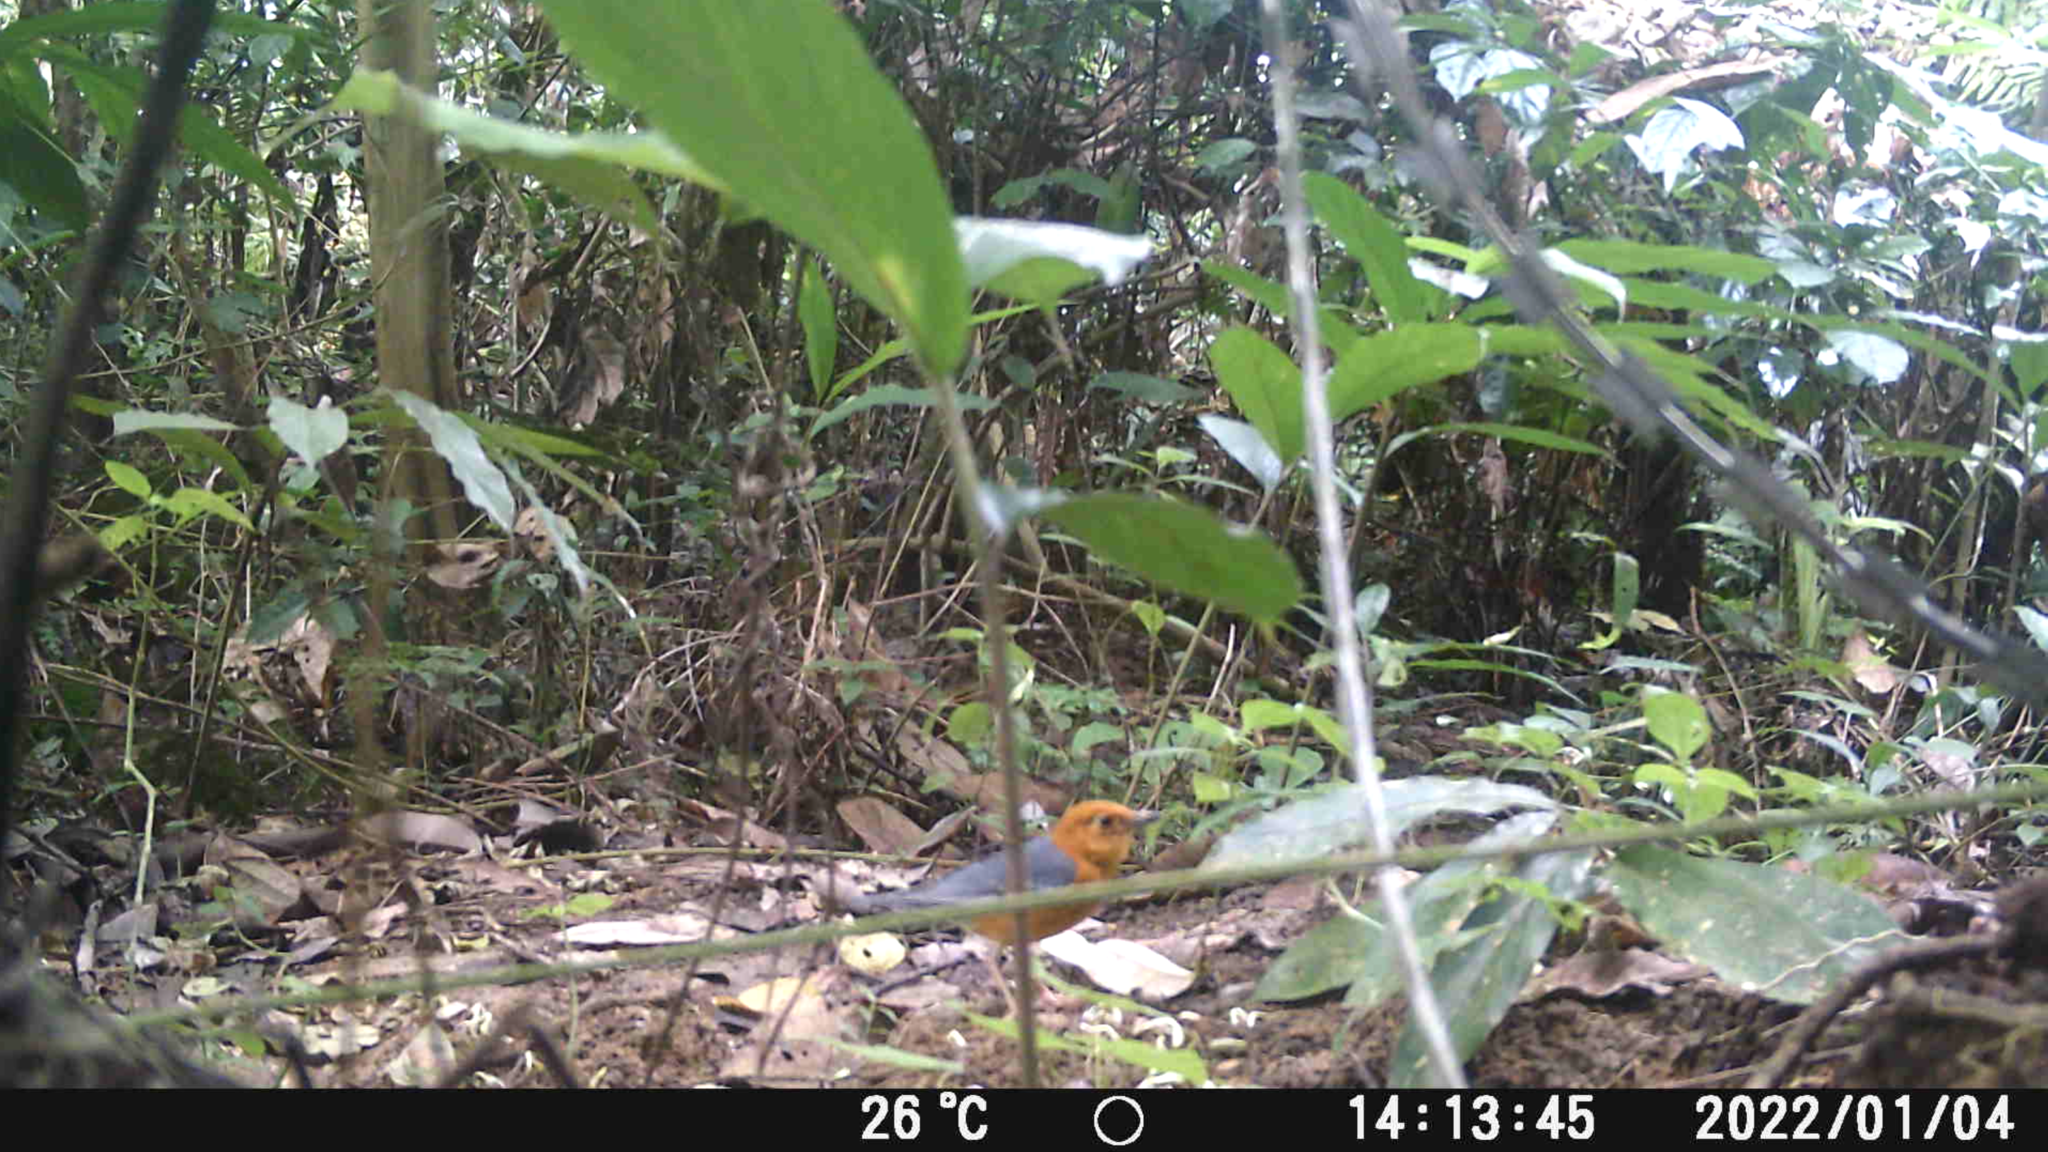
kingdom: Animalia
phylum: Chordata
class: Aves
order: Passeriformes
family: Turdidae
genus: Geokichla
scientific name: Geokichla citrina
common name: Orange-headed thrush
